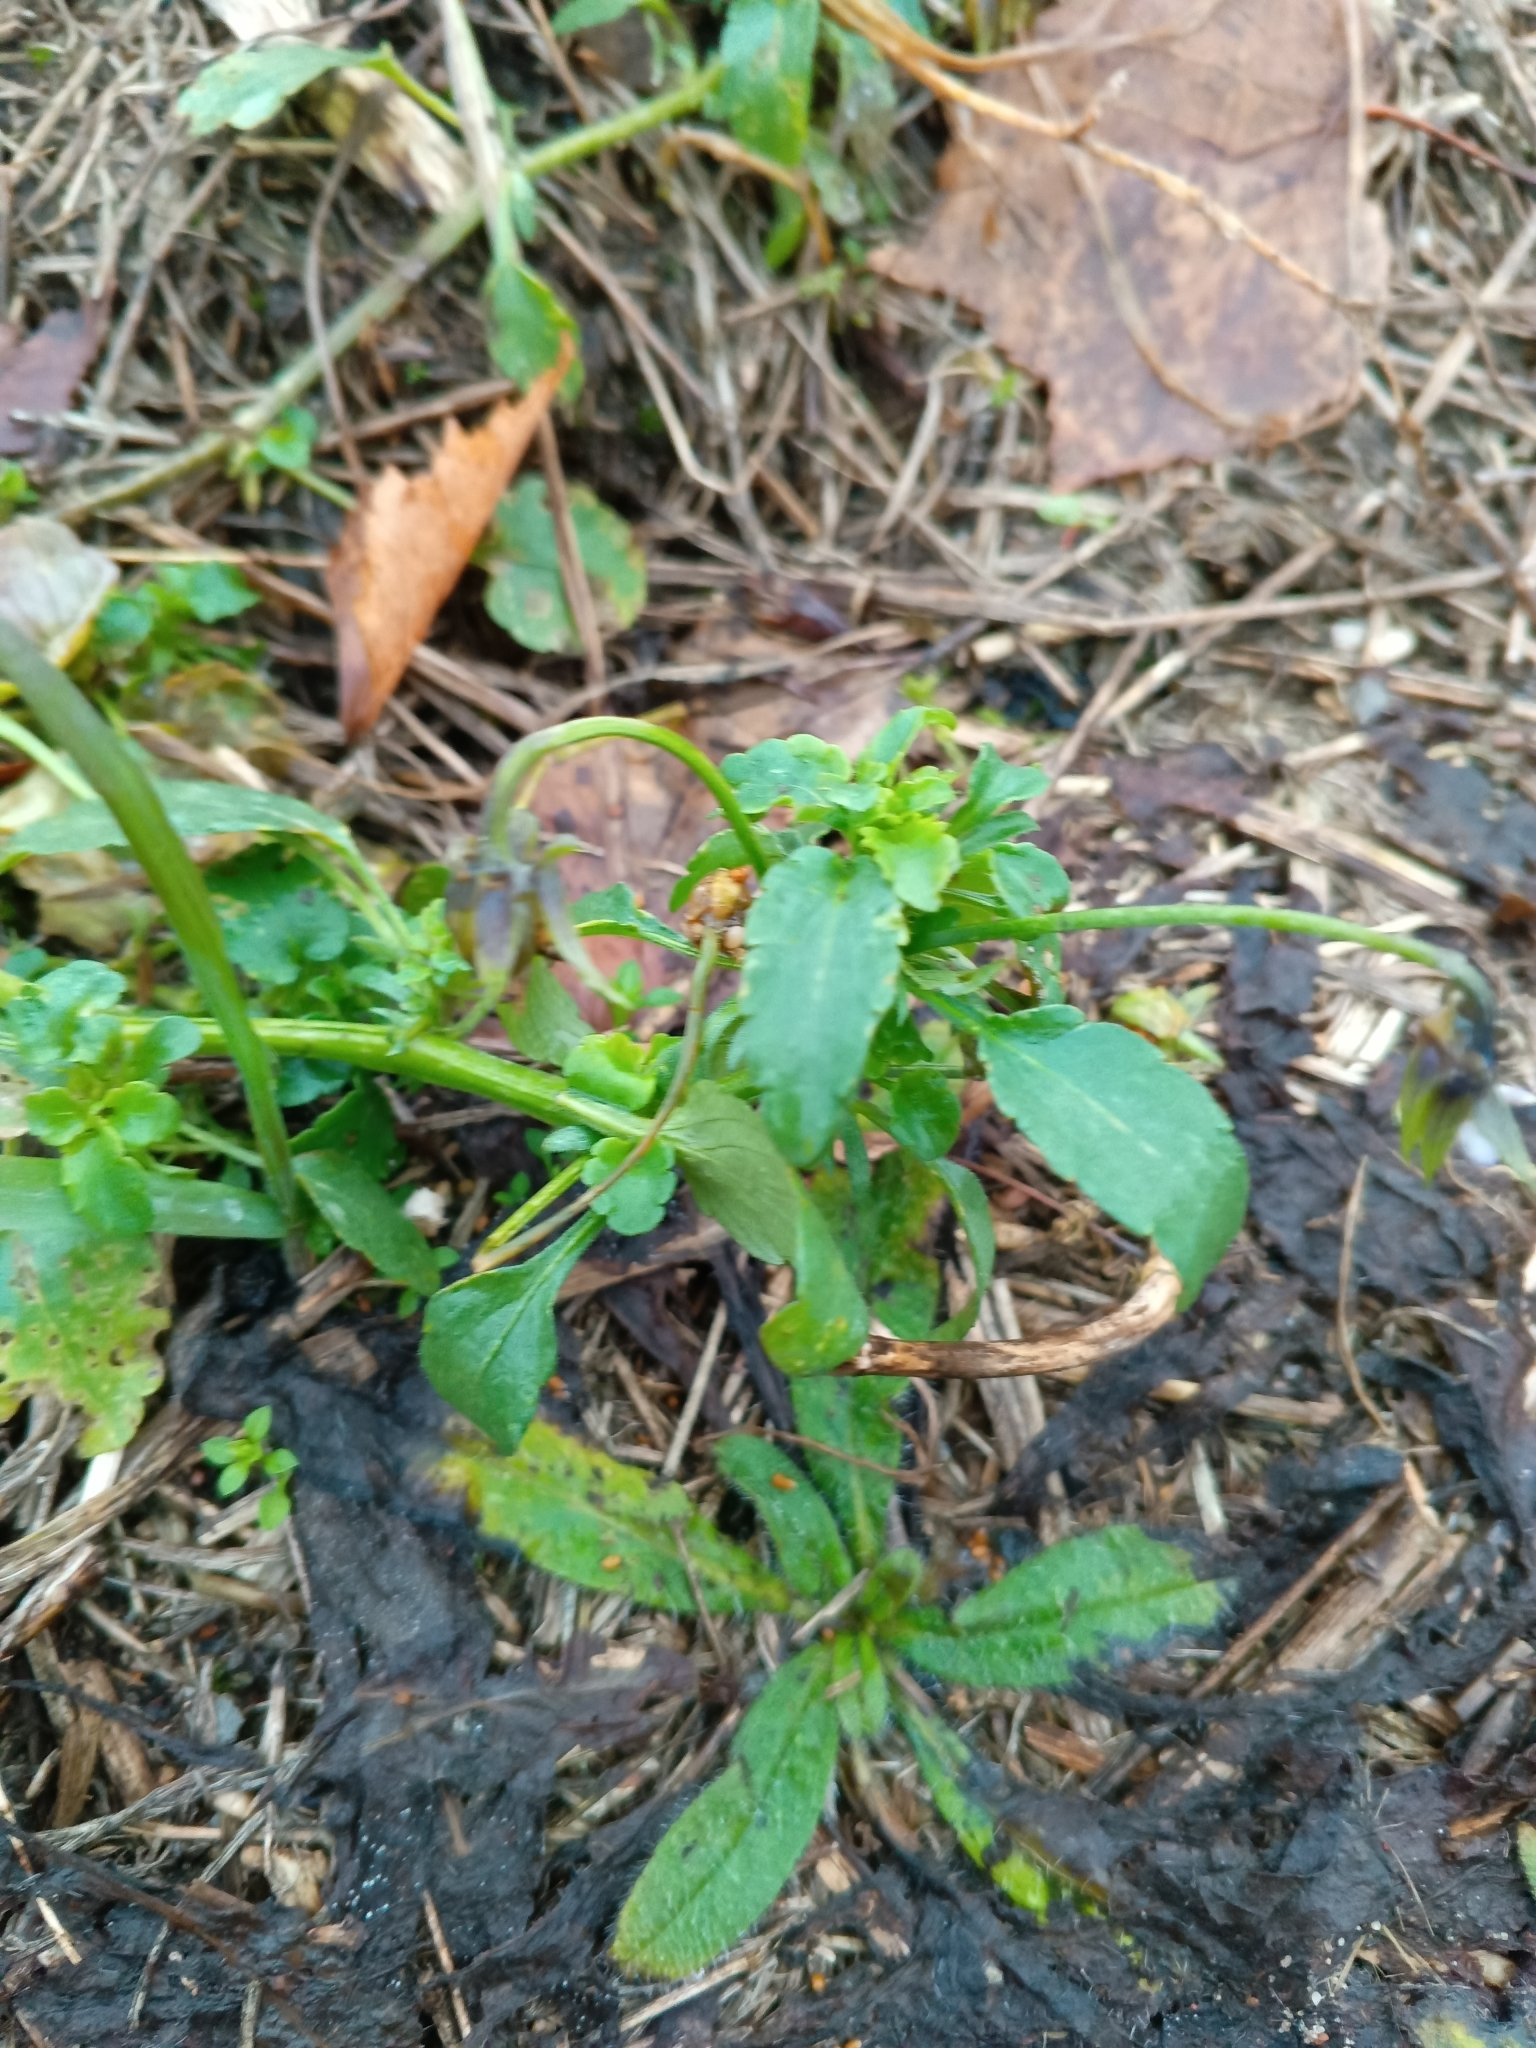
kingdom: Plantae
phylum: Tracheophyta
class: Magnoliopsida
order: Malpighiales
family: Violaceae
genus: Viola
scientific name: Viola arvensis
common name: Field pansy
